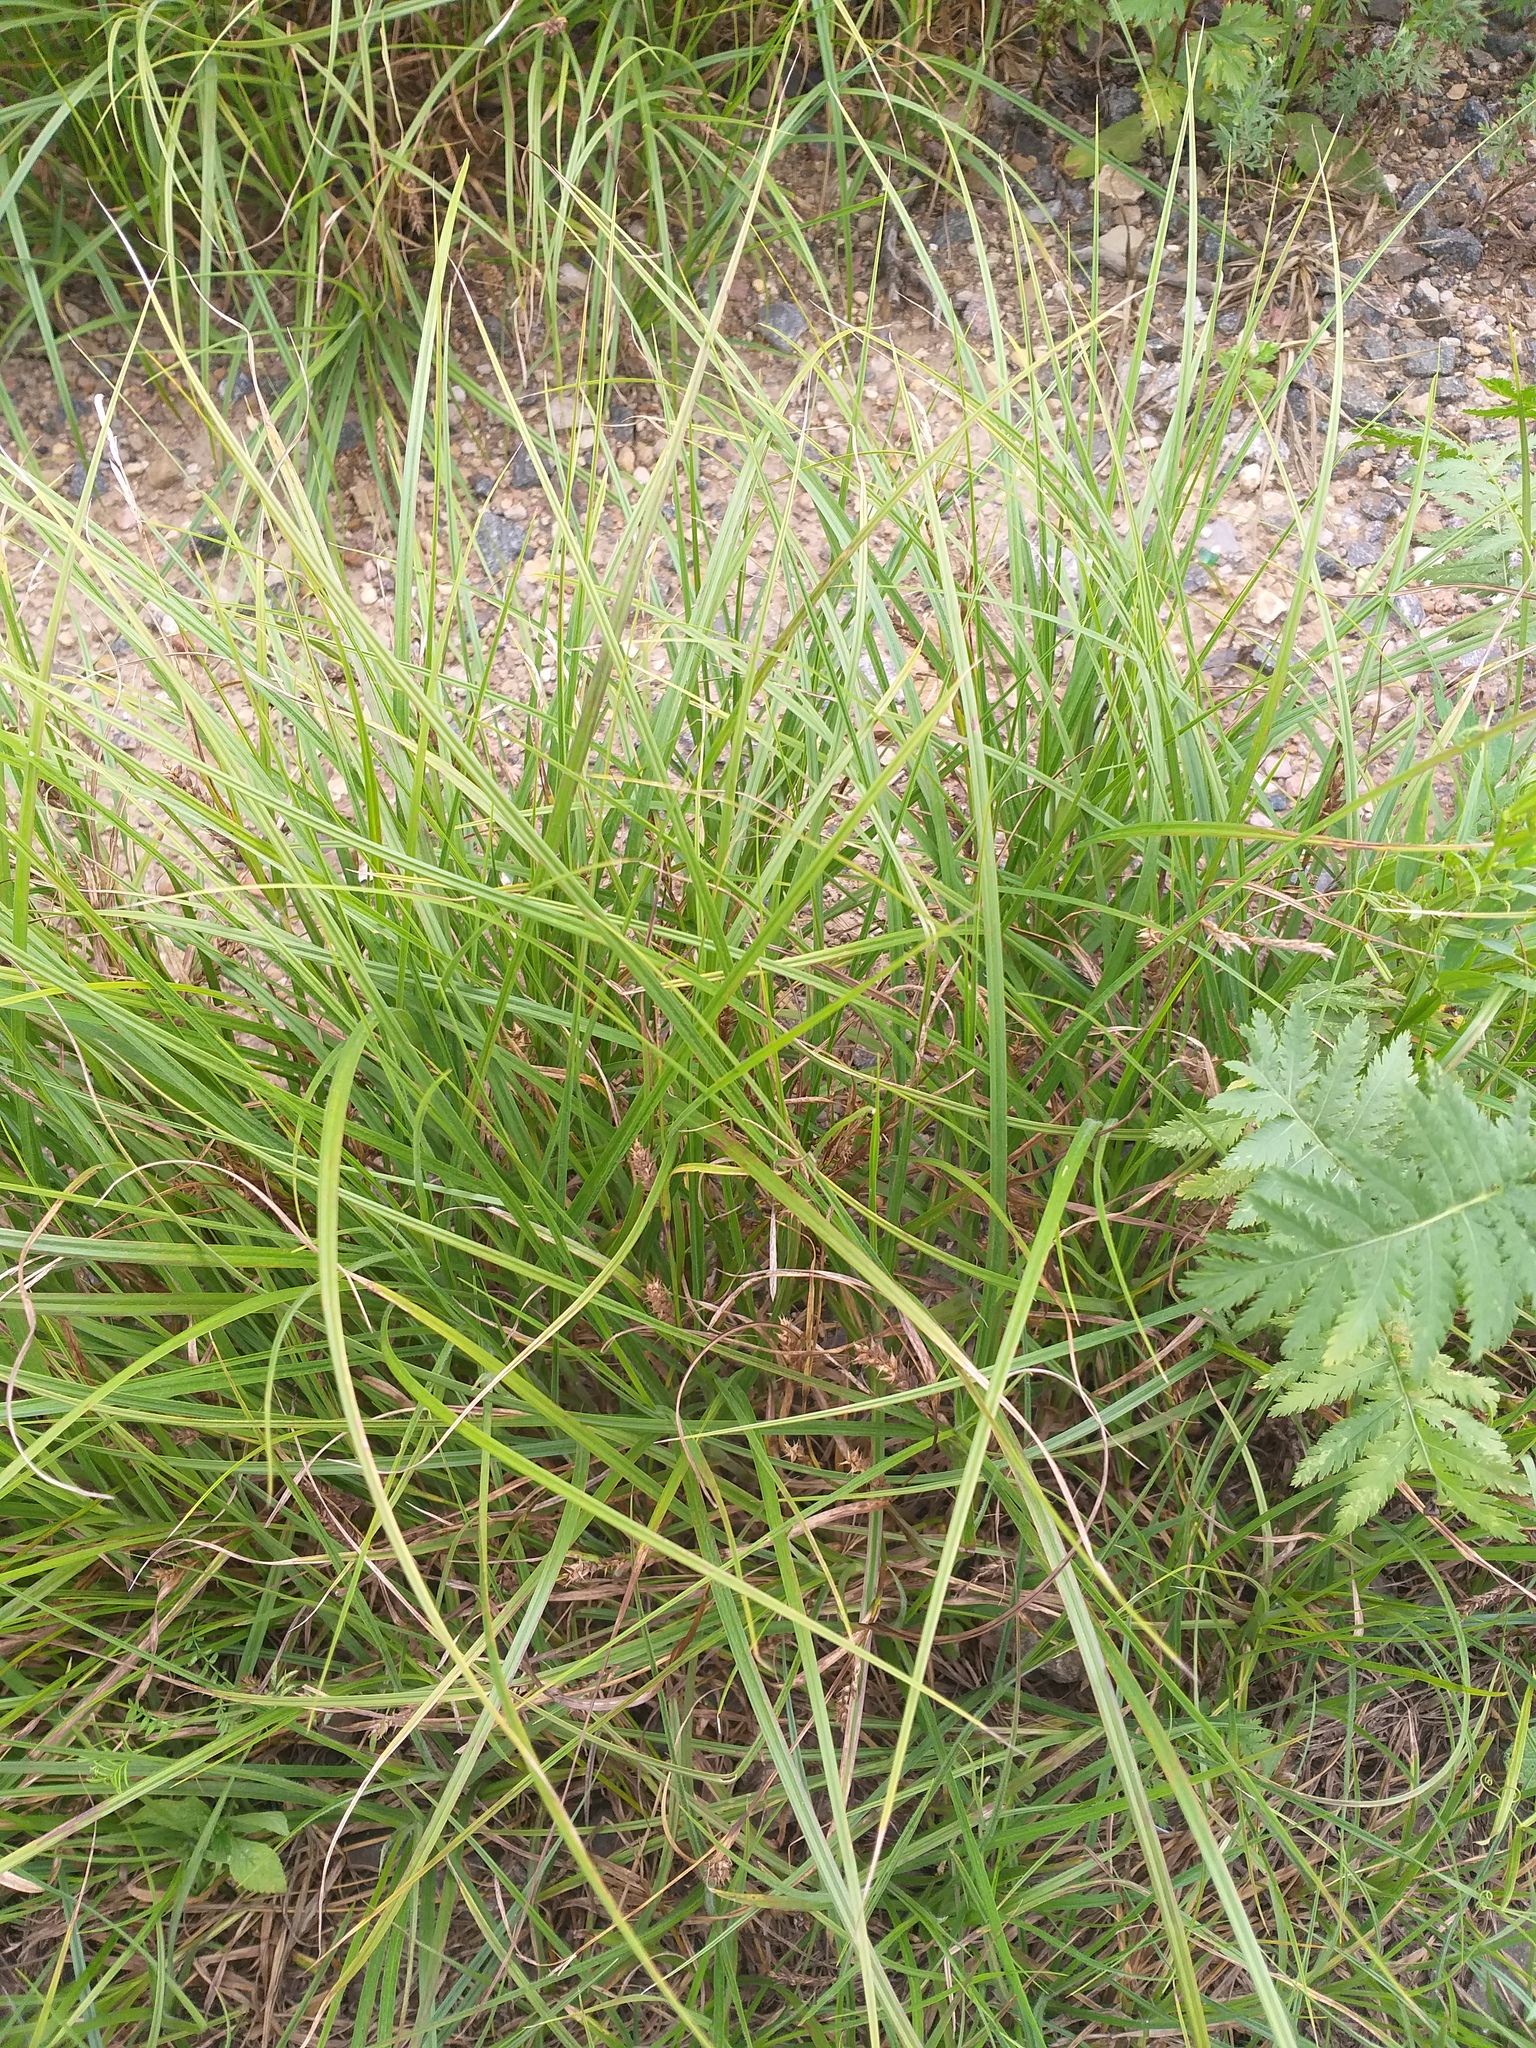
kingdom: Plantae
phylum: Tracheophyta
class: Liliopsida
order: Poales
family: Cyperaceae
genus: Carex
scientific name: Carex hirta
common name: Hairy sedge
